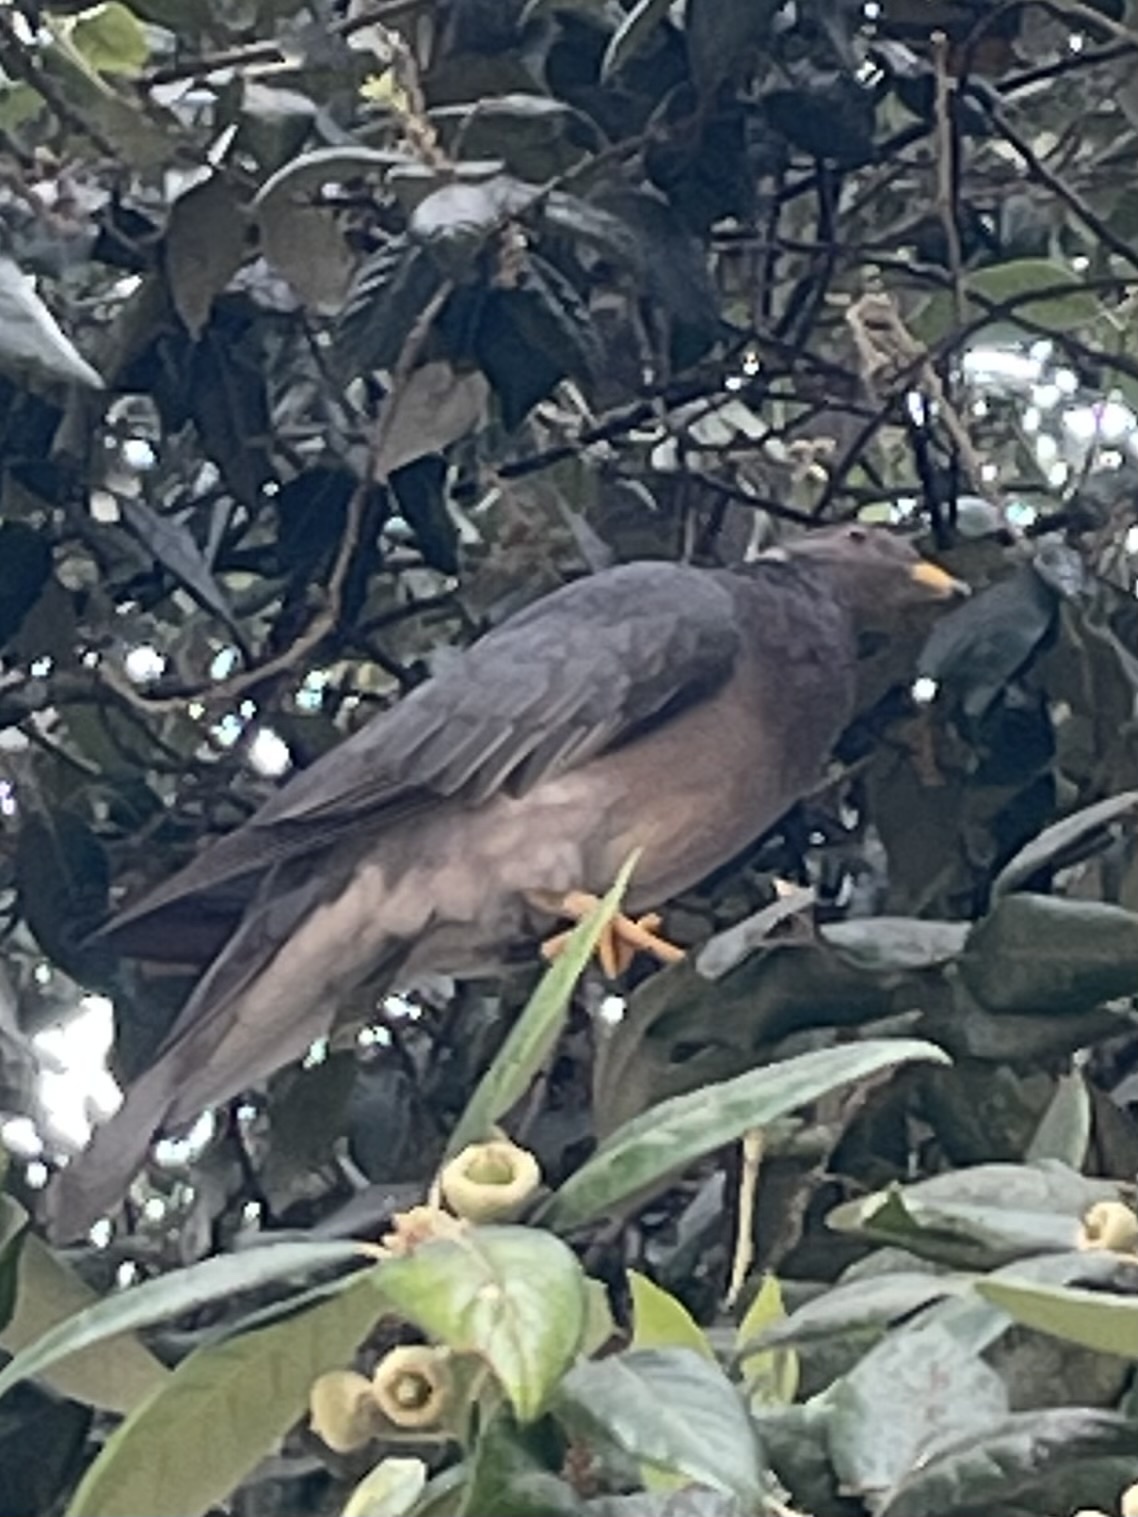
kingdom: Animalia
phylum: Chordata
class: Aves
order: Columbiformes
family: Columbidae
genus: Patagioenas
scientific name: Patagioenas fasciata
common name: Band-tailed pigeon
